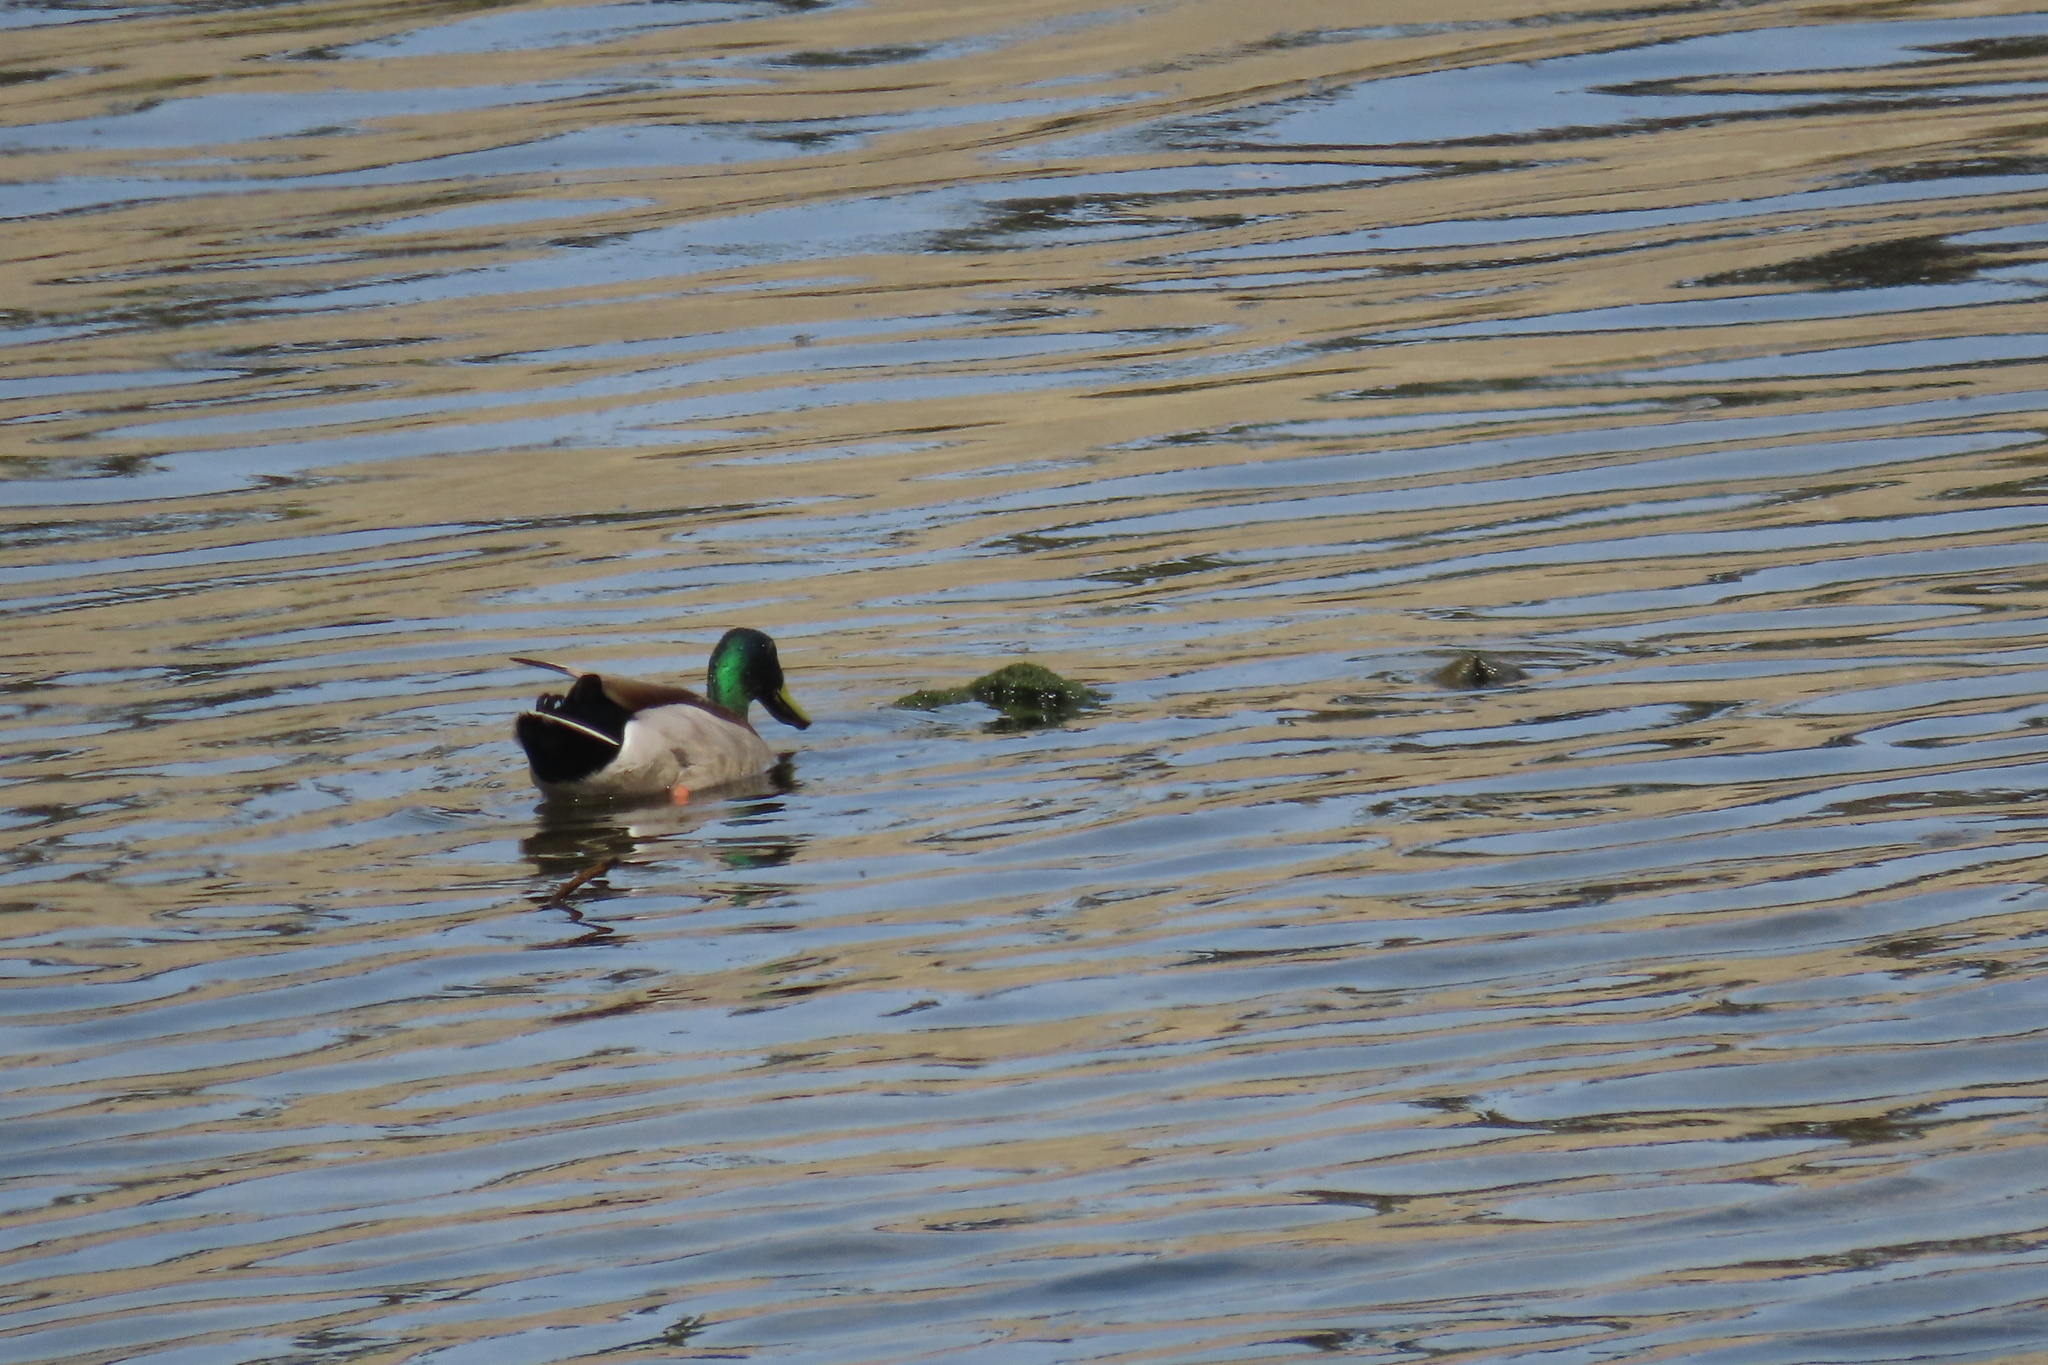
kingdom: Animalia
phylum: Chordata
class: Aves
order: Anseriformes
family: Anatidae
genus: Anas
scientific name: Anas platyrhynchos
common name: Mallard
